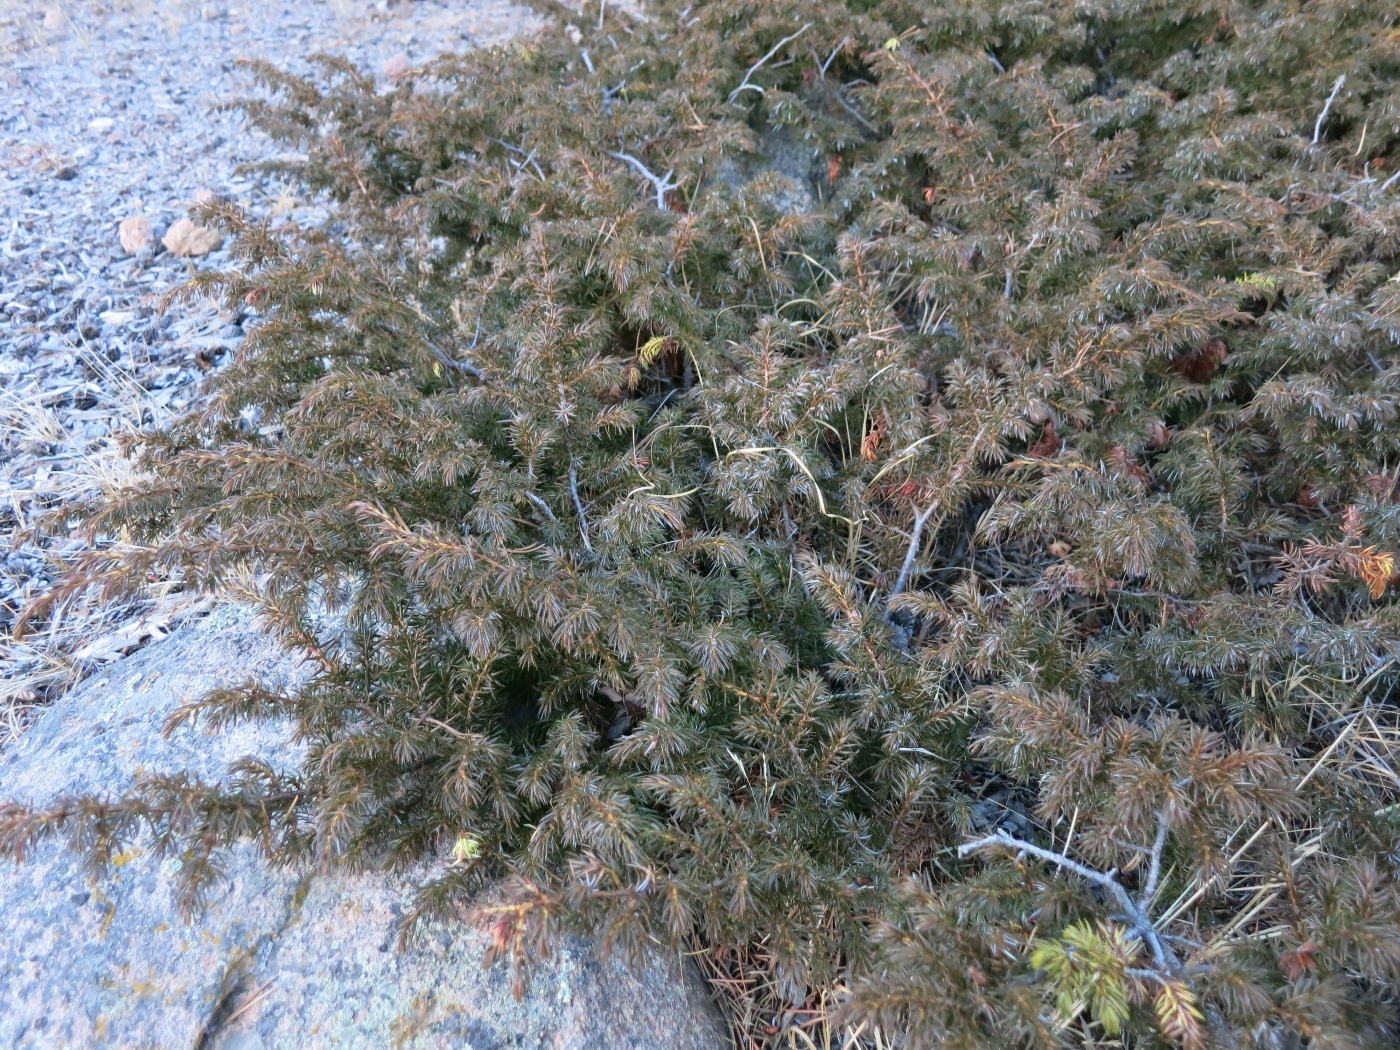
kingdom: Plantae
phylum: Tracheophyta
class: Pinopsida
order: Pinales
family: Cupressaceae
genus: Juniperus
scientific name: Juniperus communis
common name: Common juniper
